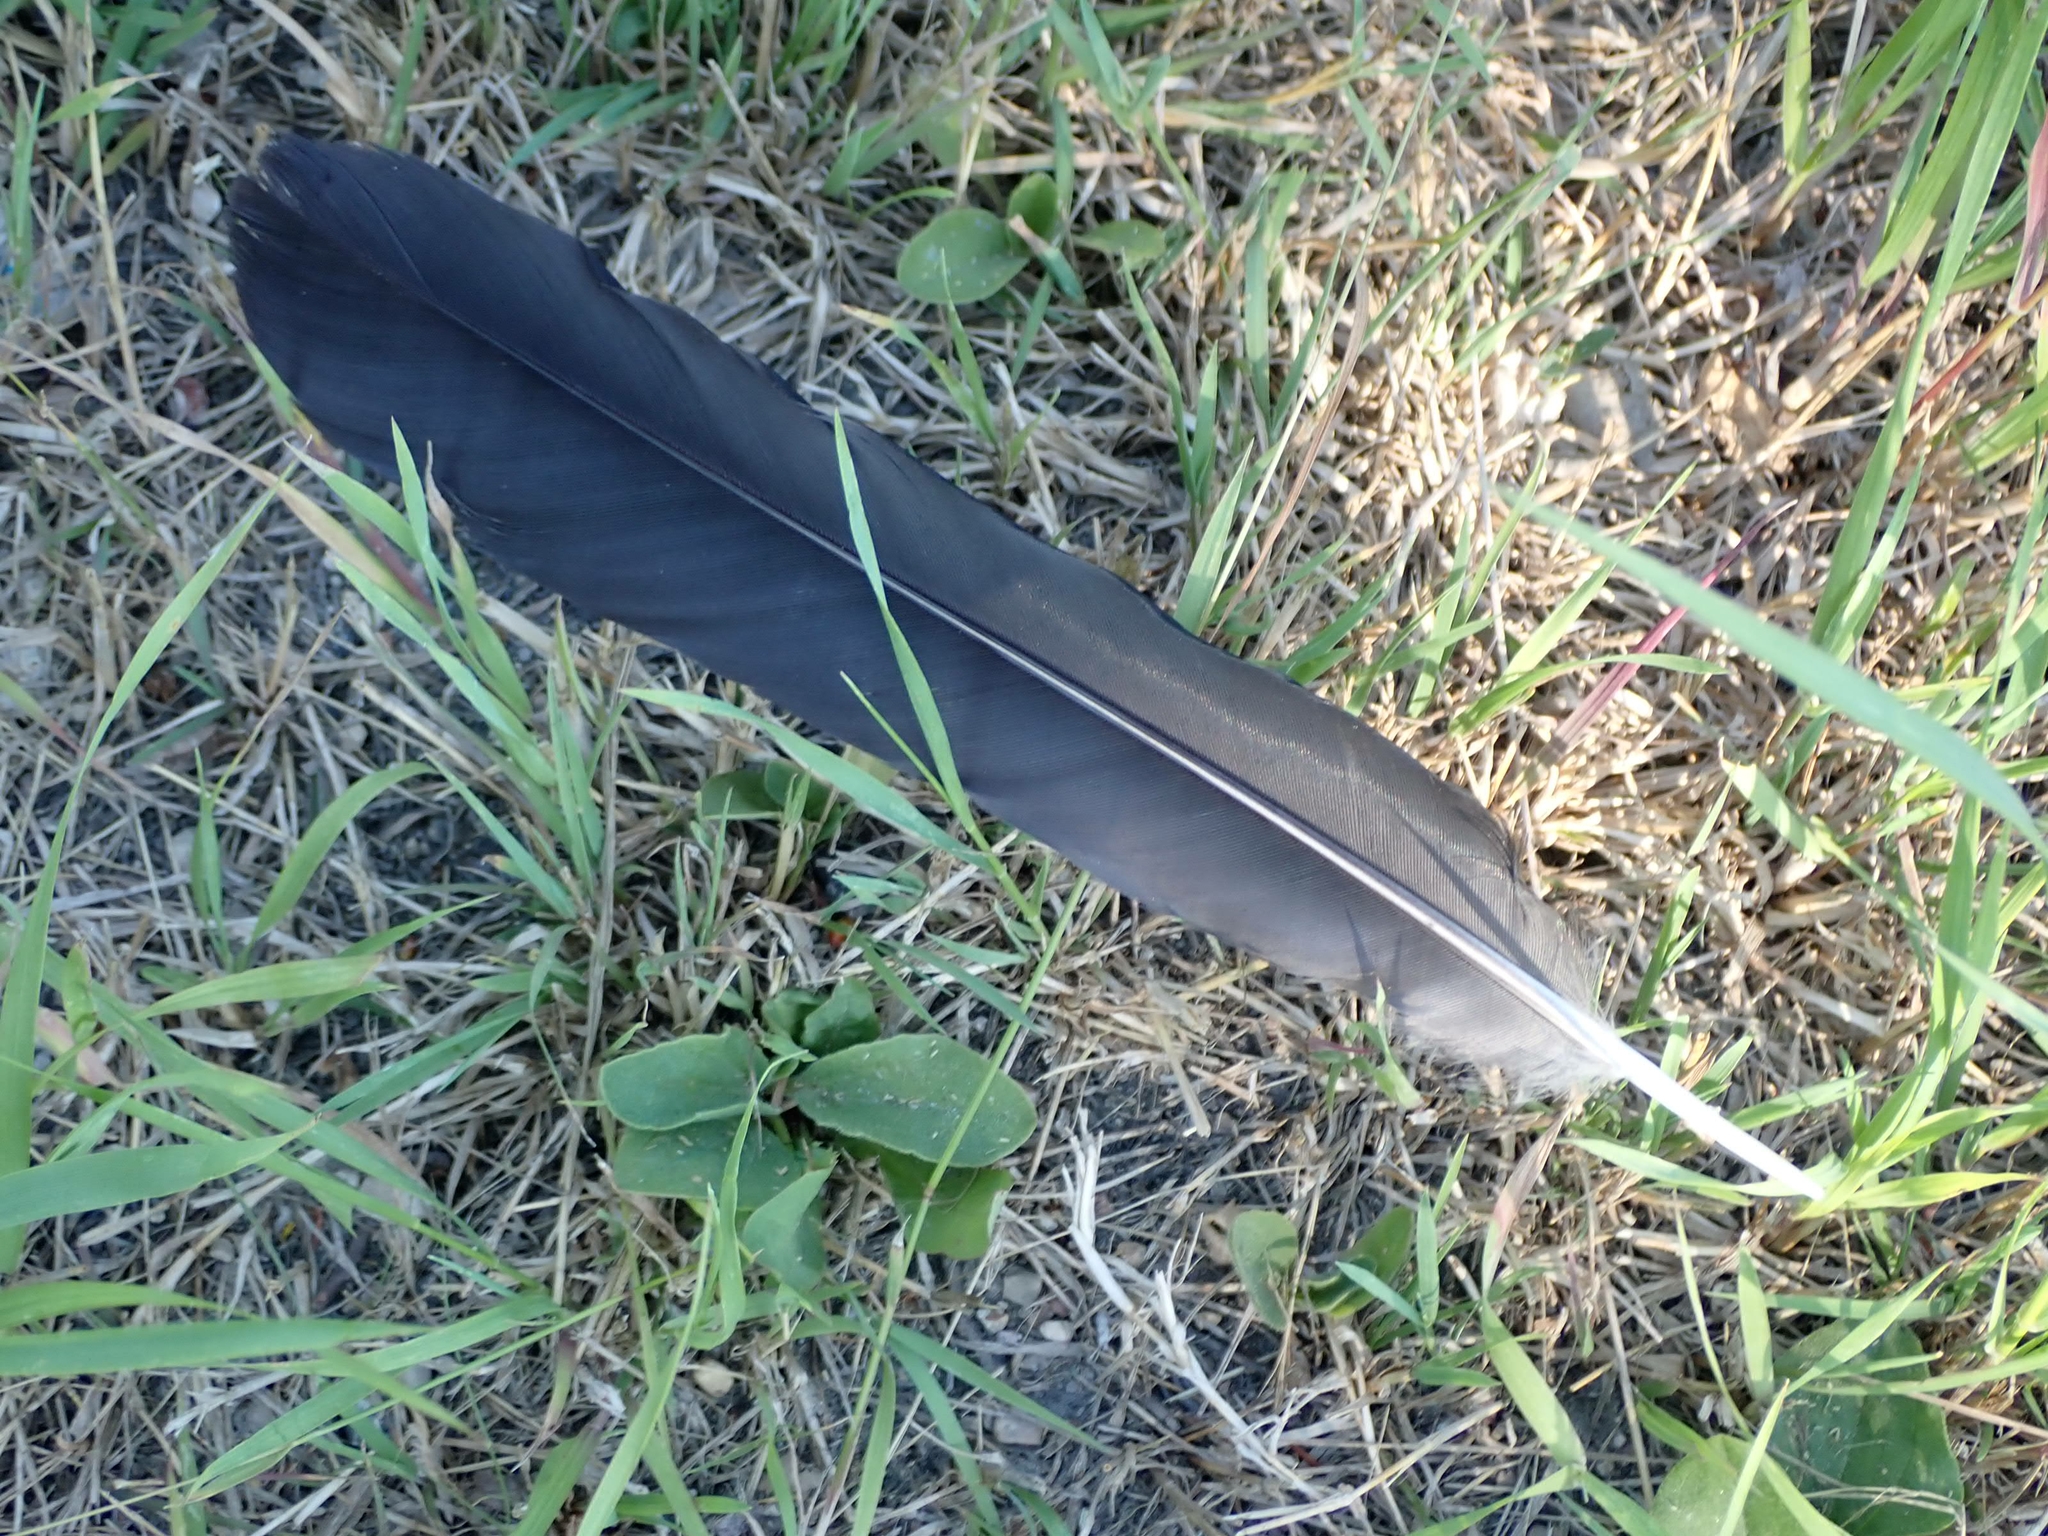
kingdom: Animalia
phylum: Chordata
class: Aves
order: Passeriformes
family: Corvidae
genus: Corvus
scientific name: Corvus brachyrhynchos
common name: American crow
